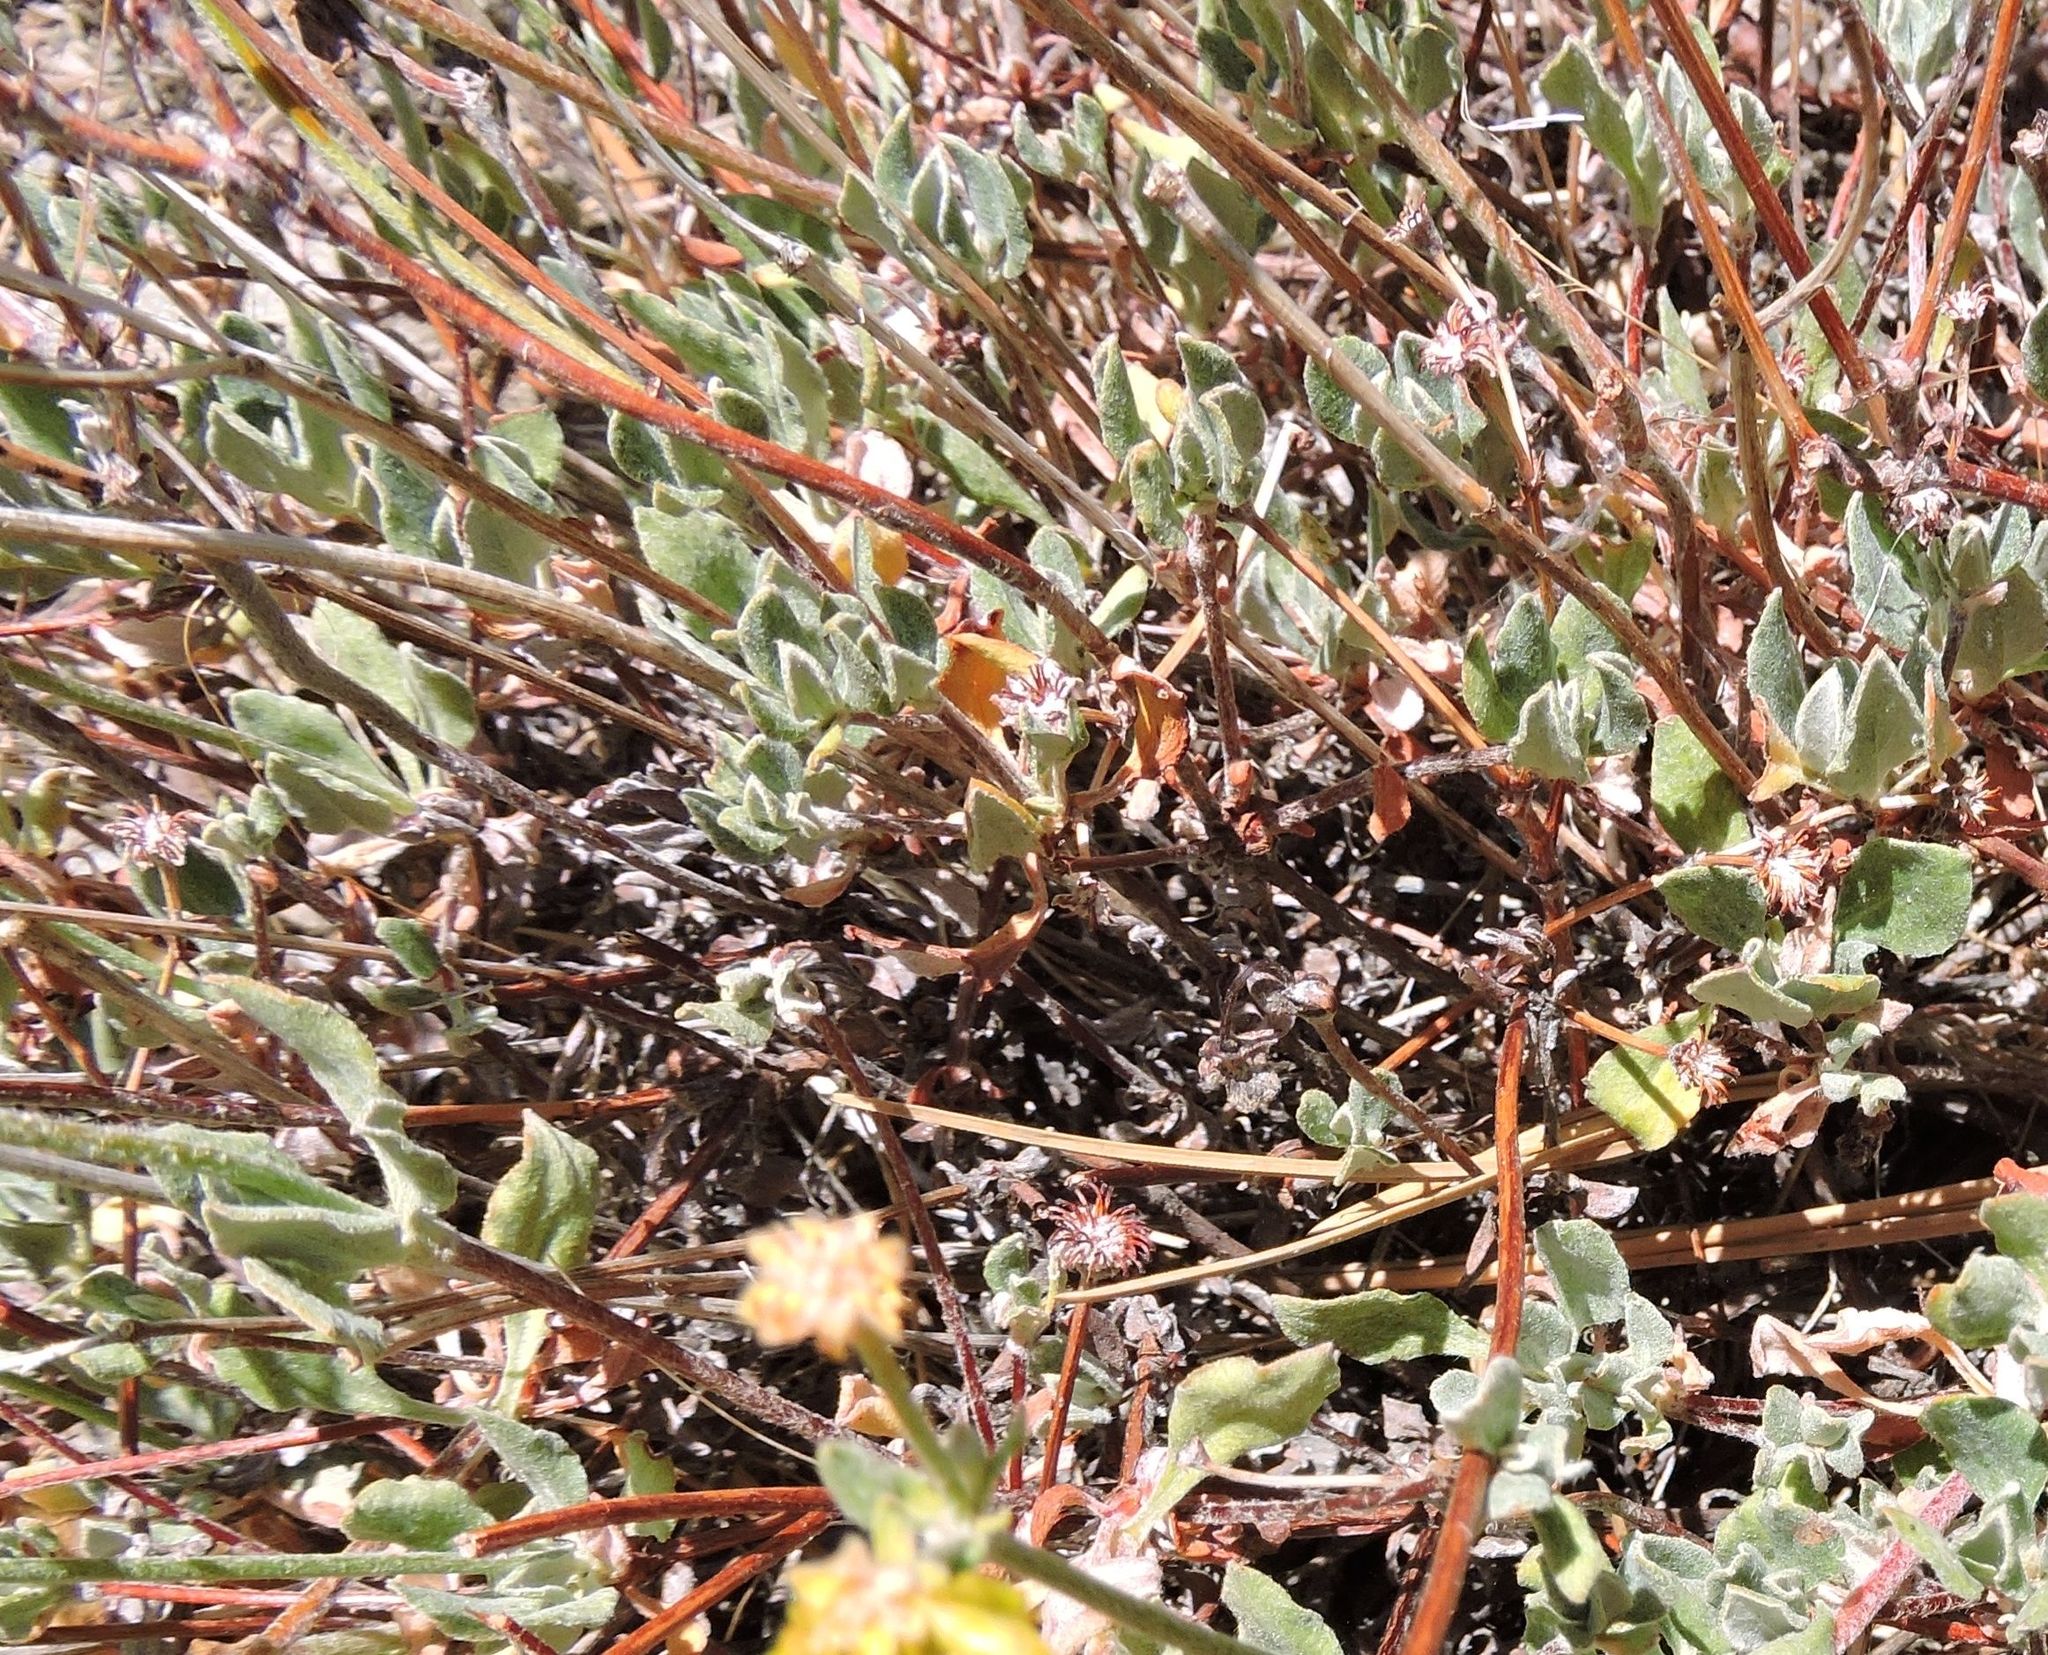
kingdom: Plantae
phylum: Tracheophyta
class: Magnoliopsida
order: Caryophyllales
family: Polygonaceae
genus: Eriogonum
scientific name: Eriogonum umbellatum
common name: Sulfur-buckwheat
